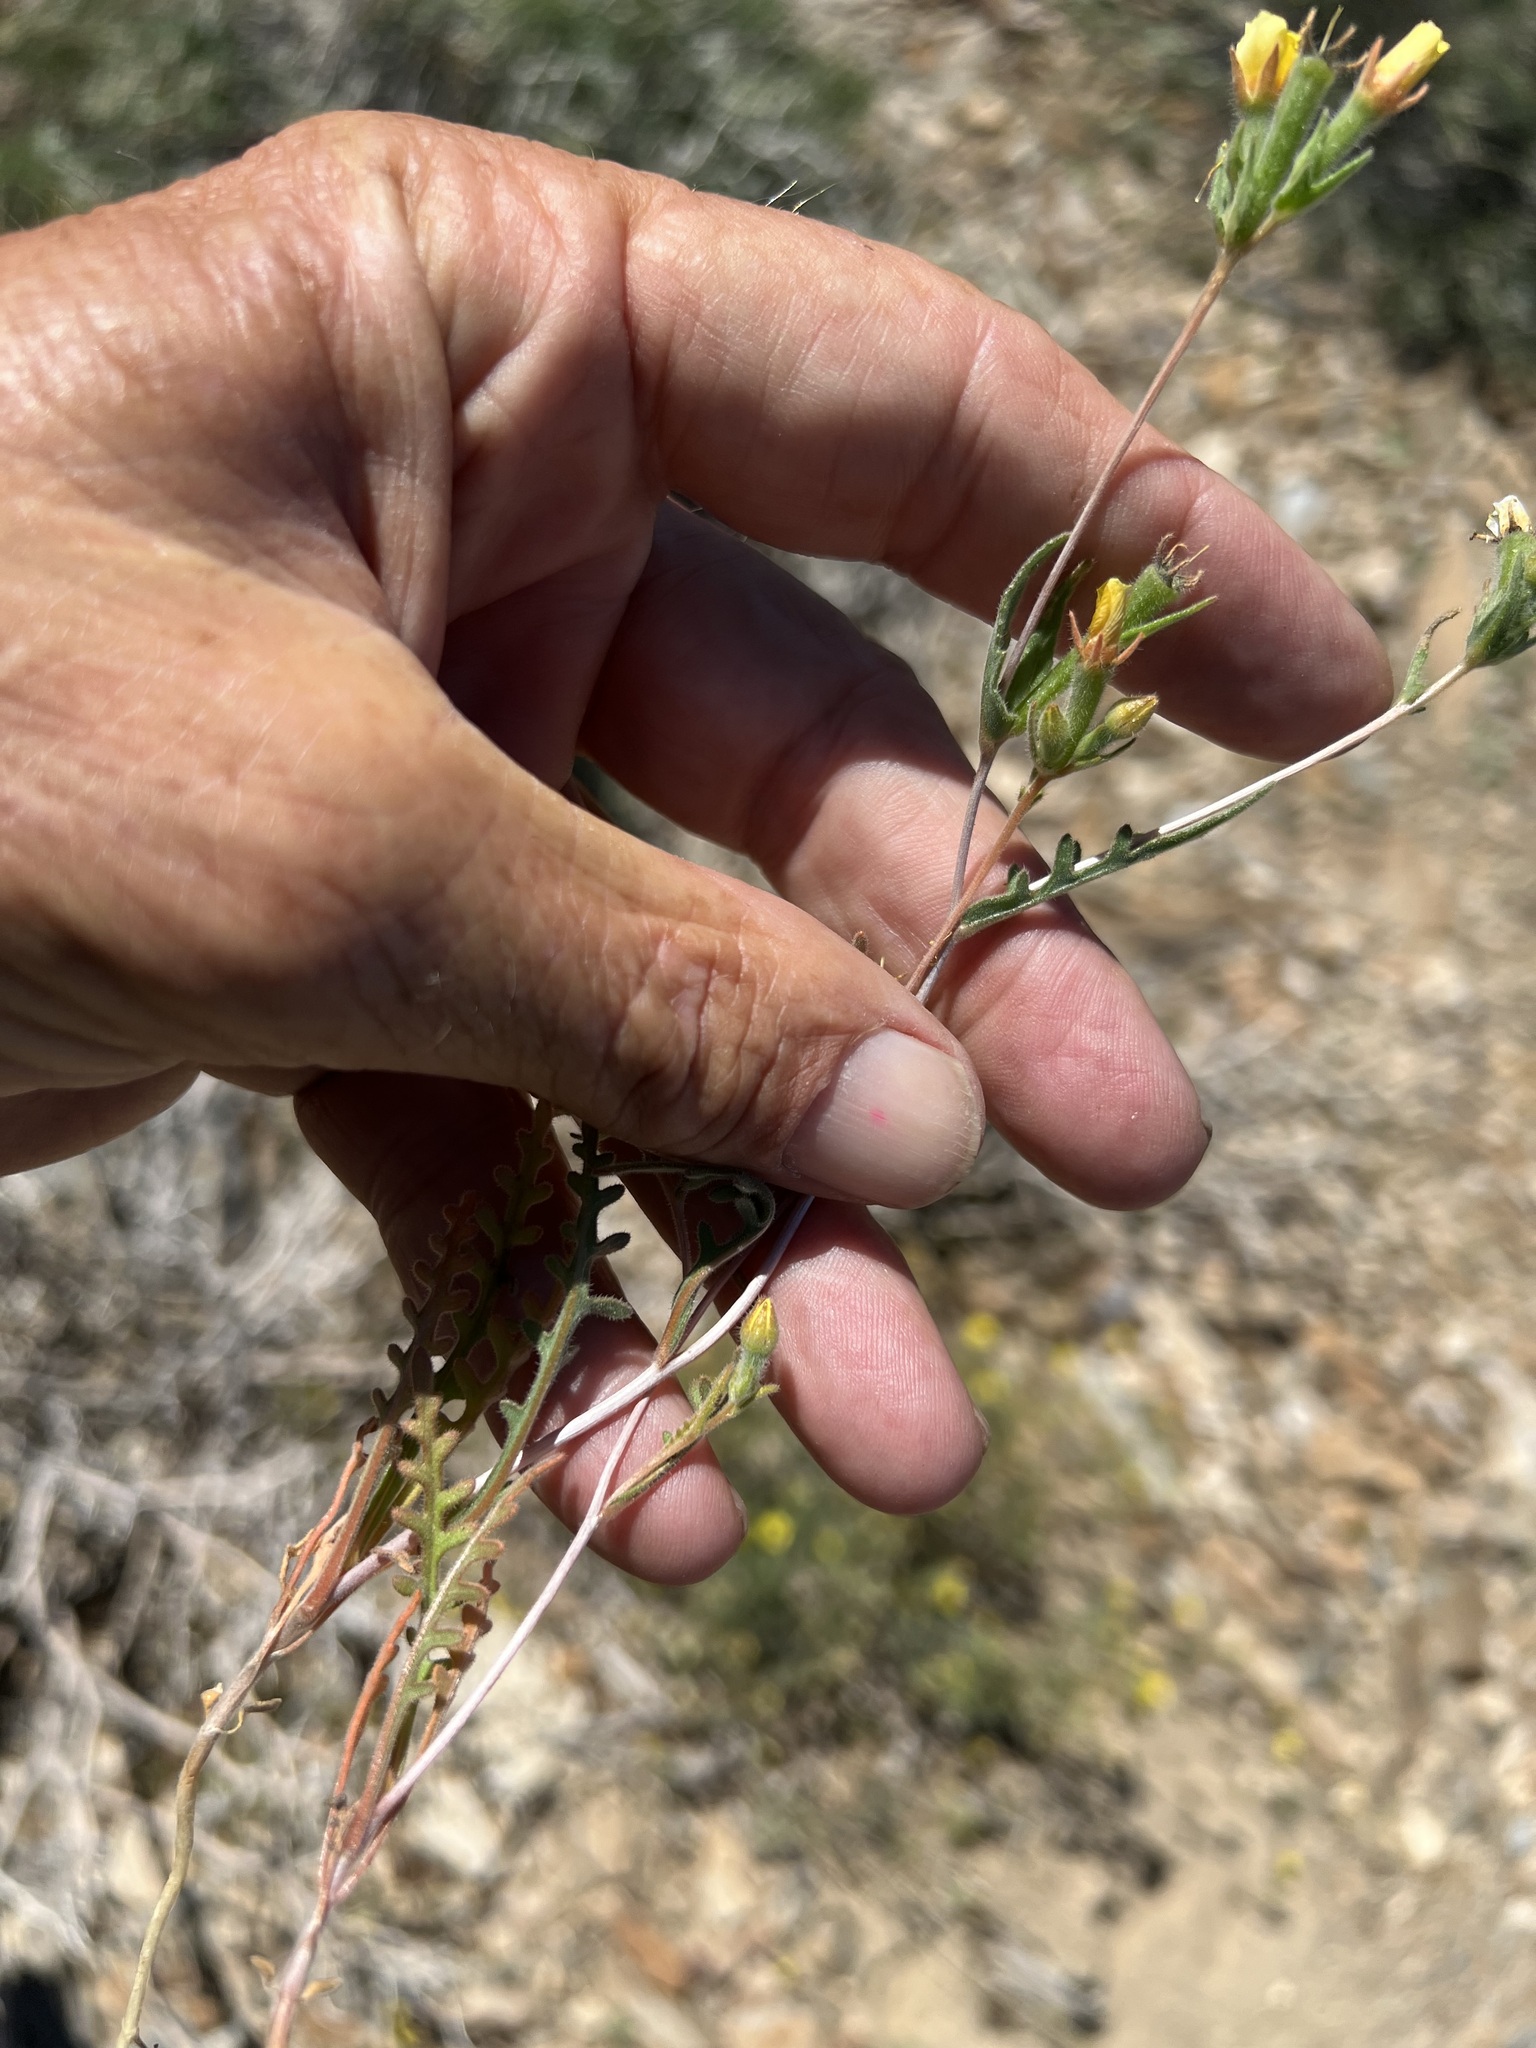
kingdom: Plantae
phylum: Tracheophyta
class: Magnoliopsida
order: Cornales
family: Loasaceae
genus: Mentzelia
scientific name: Mentzelia montana
